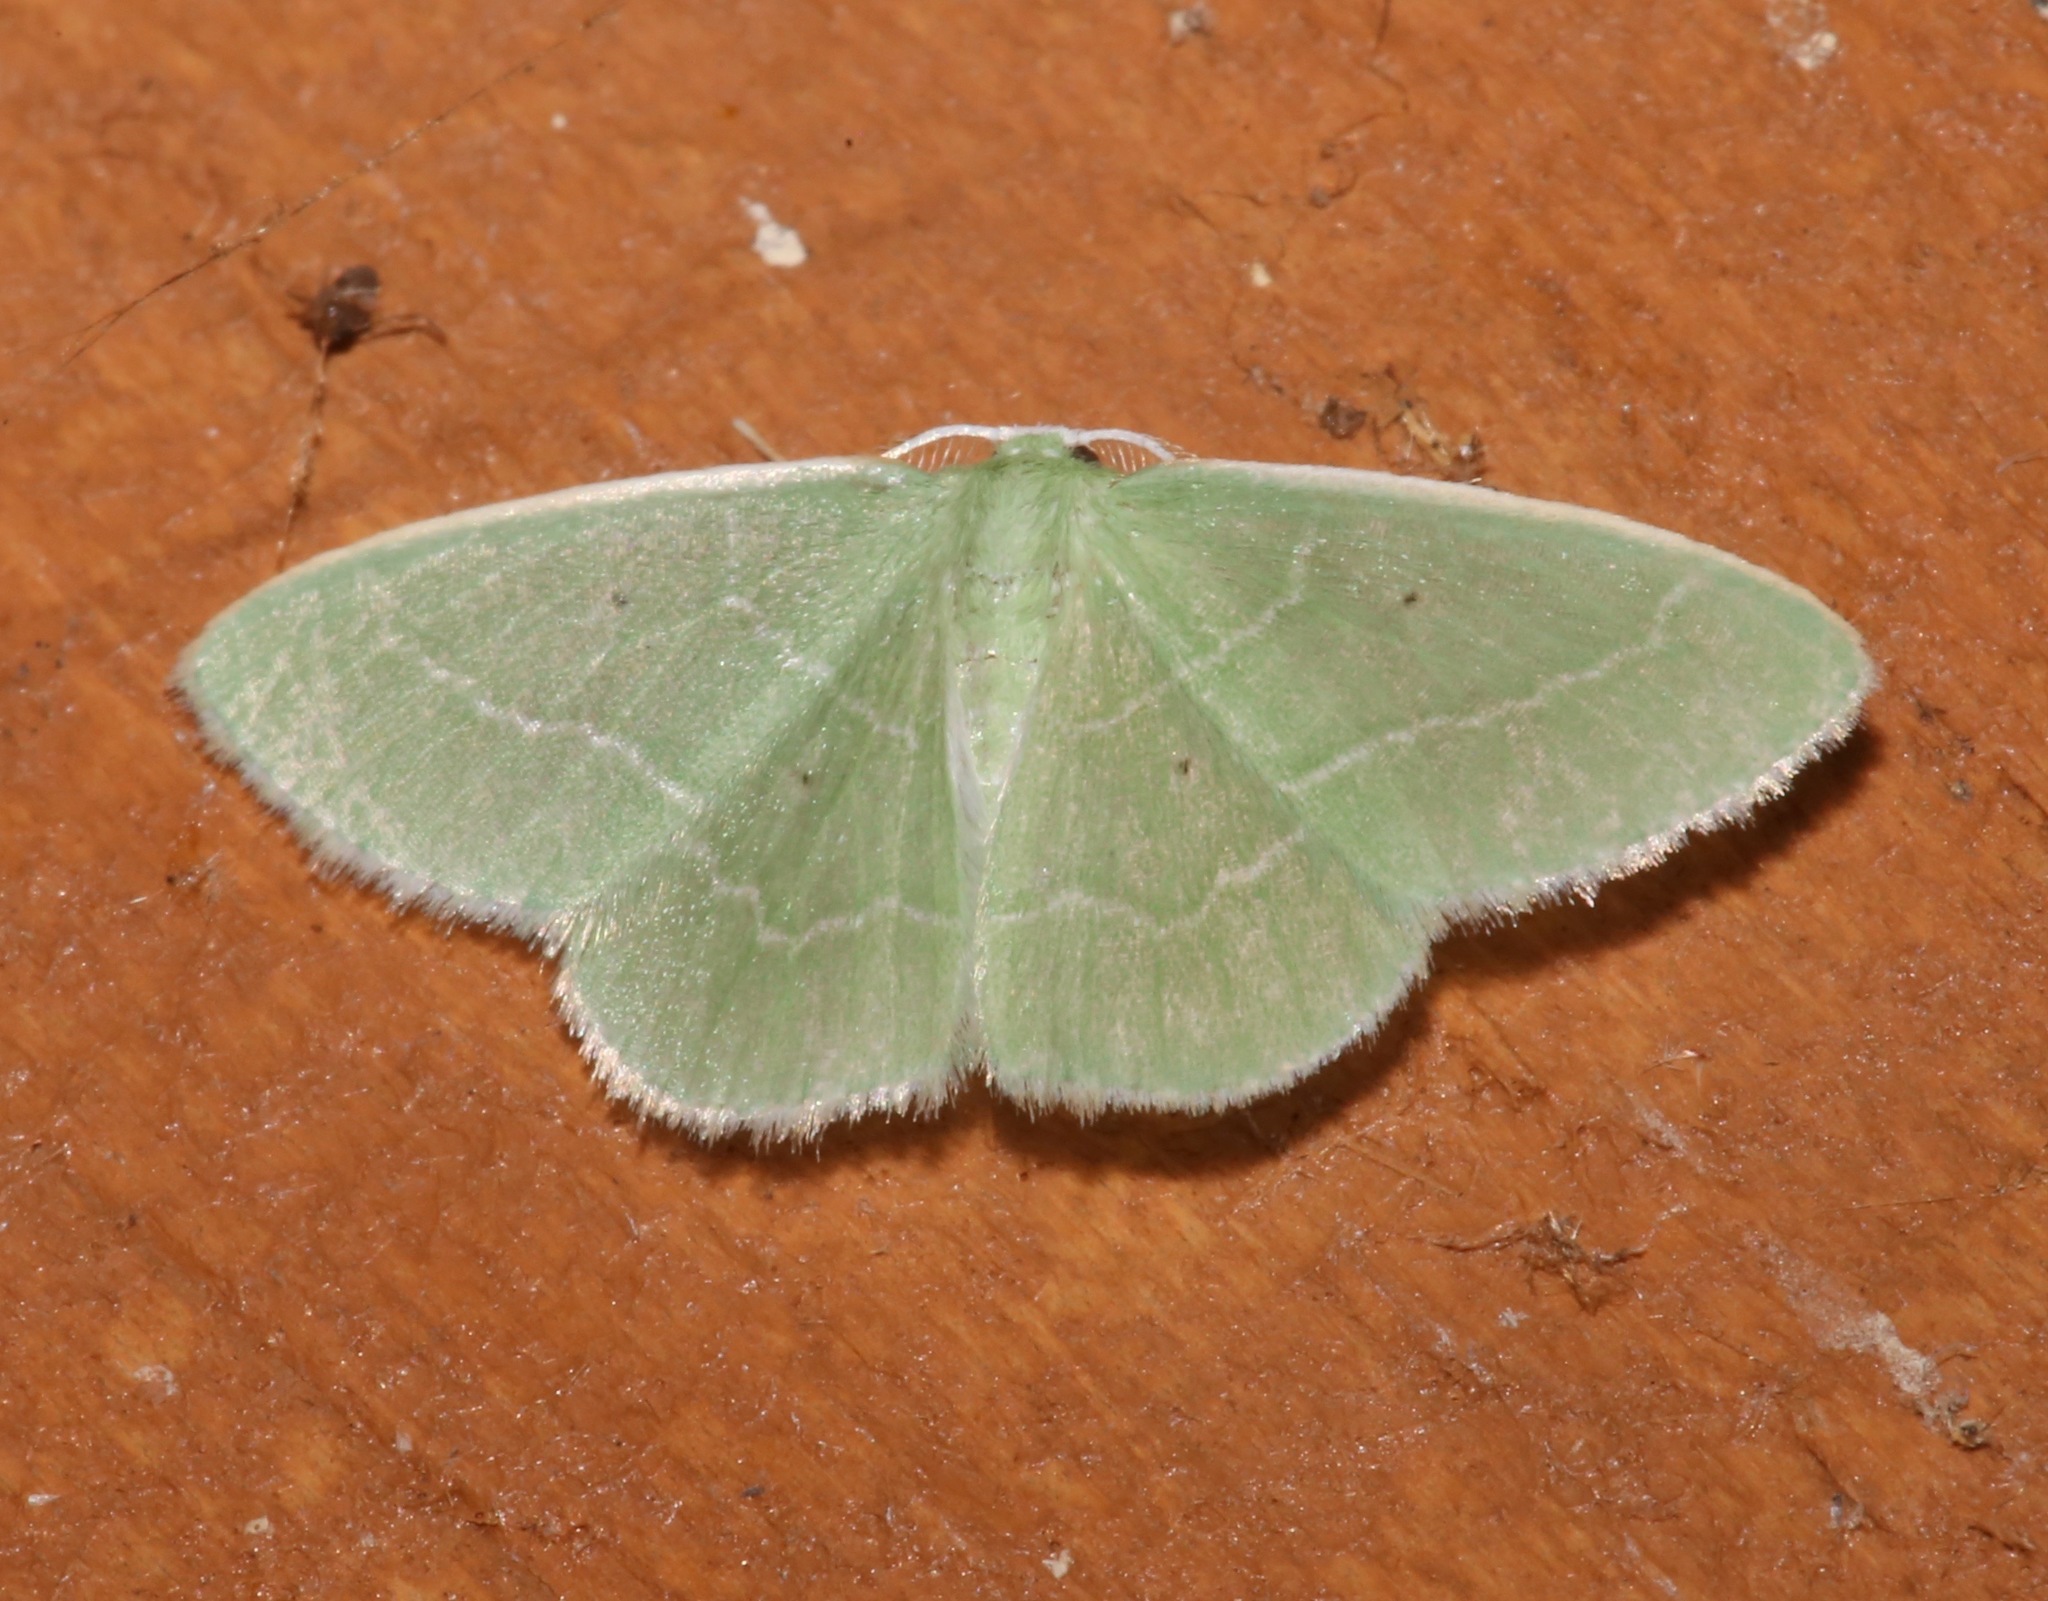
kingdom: Animalia
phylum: Arthropoda
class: Insecta
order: Lepidoptera
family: Geometridae
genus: Nemoria
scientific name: Nemoria elfa
